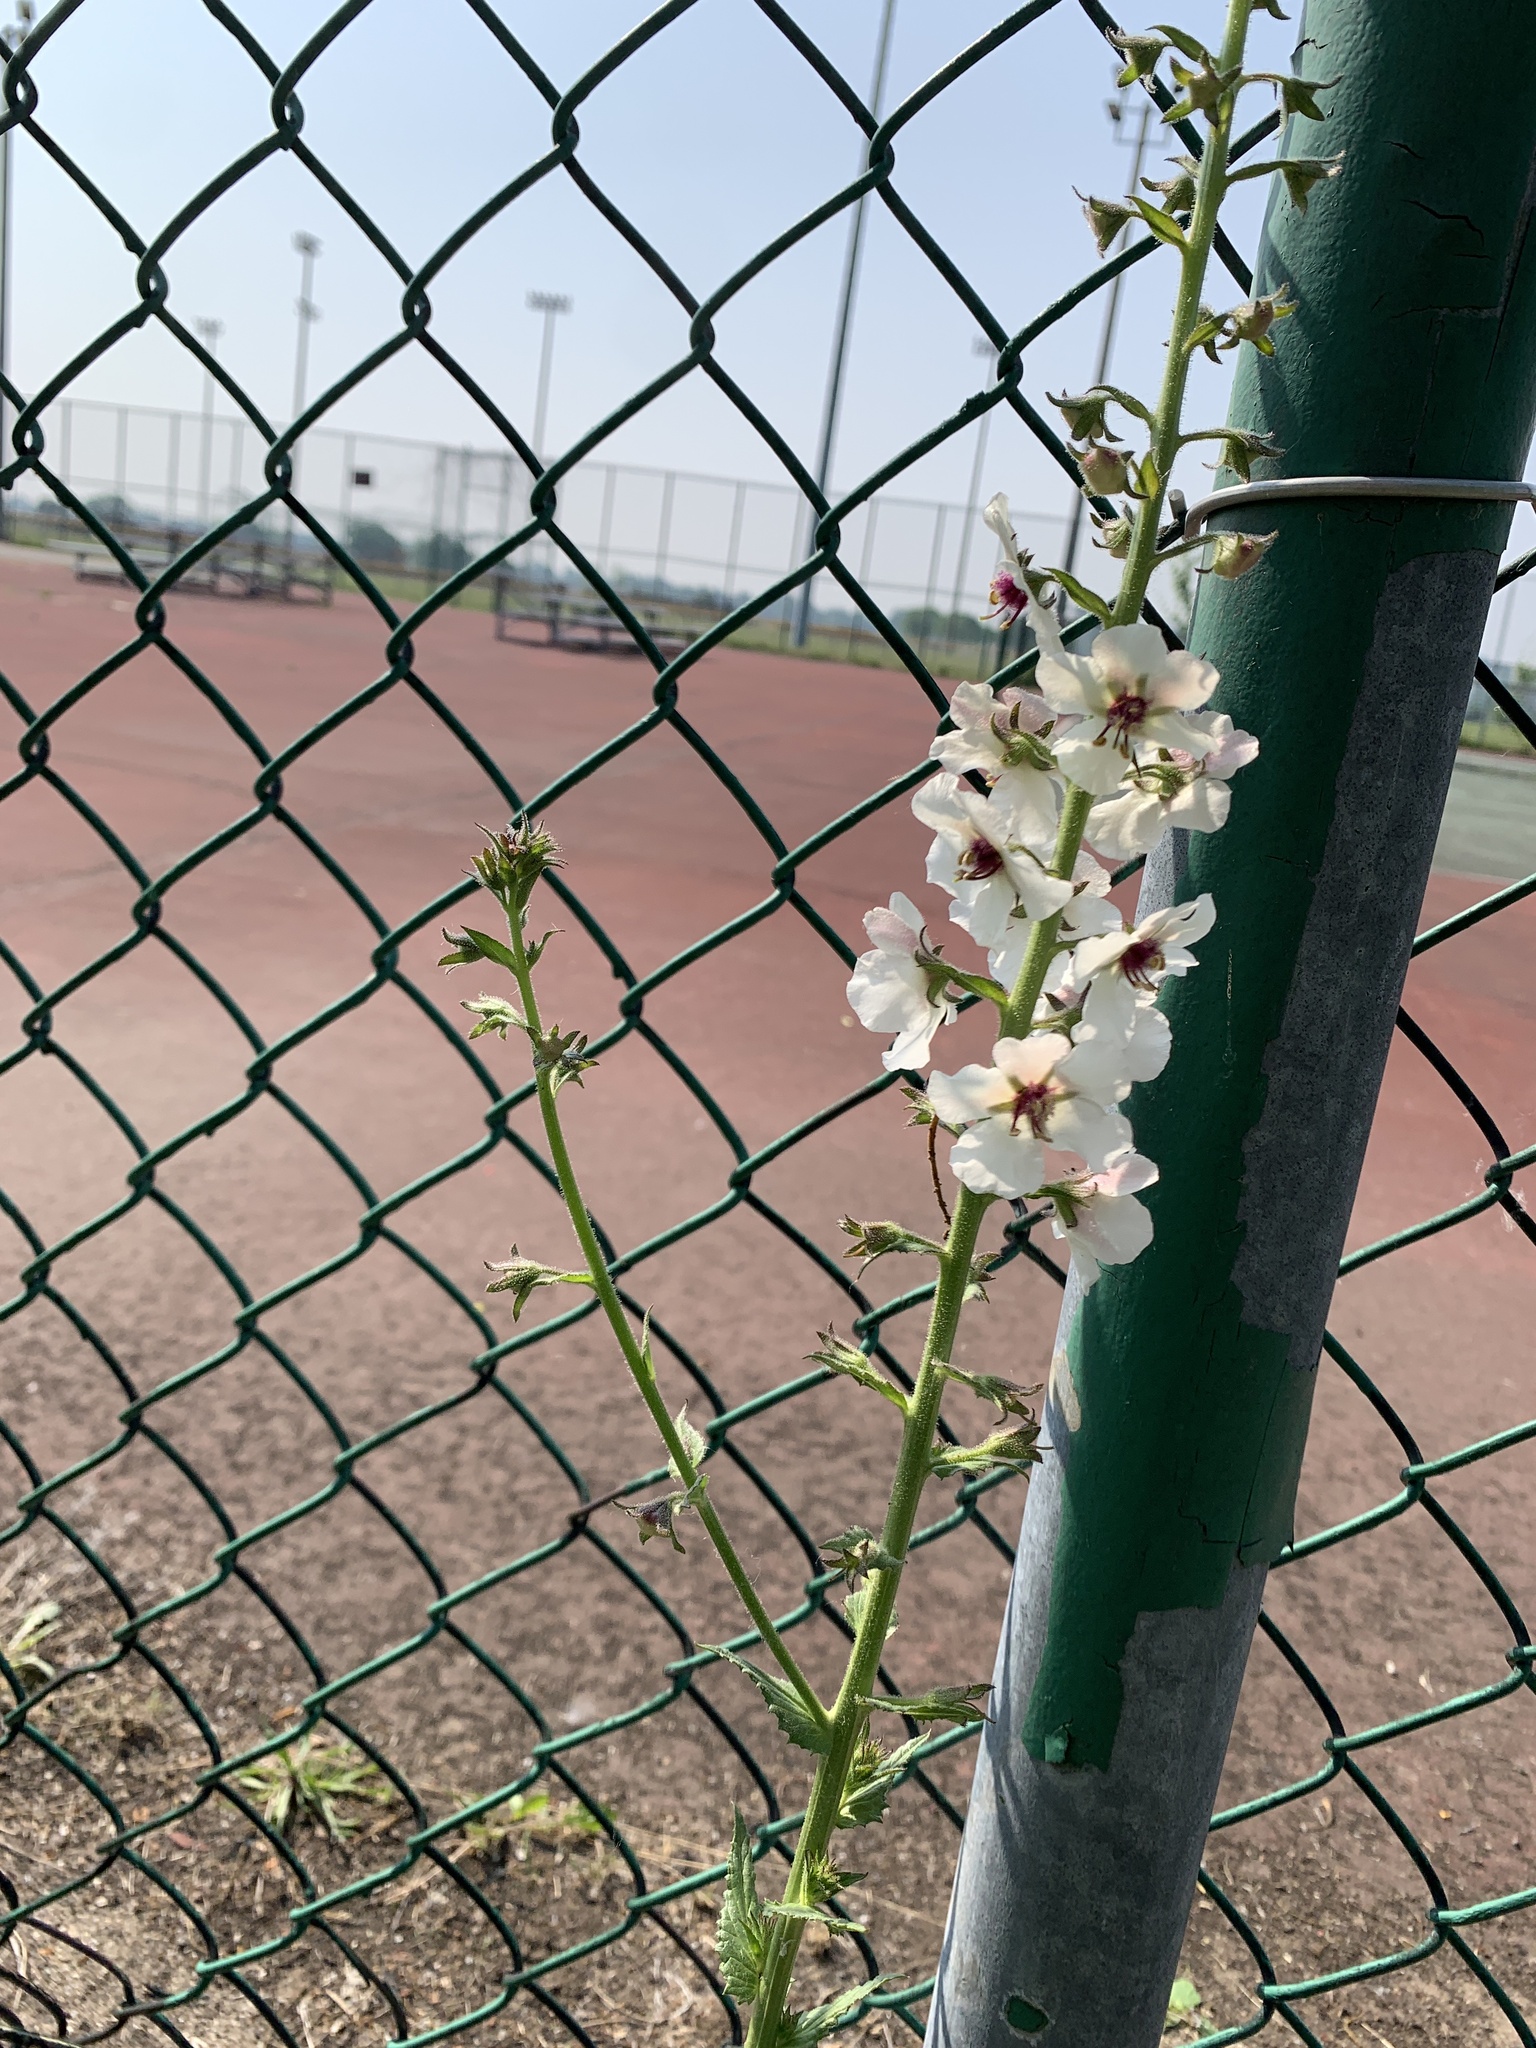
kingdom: Plantae
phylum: Tracheophyta
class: Magnoliopsida
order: Lamiales
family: Scrophulariaceae
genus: Verbascum
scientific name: Verbascum blattaria
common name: Moth mullein
